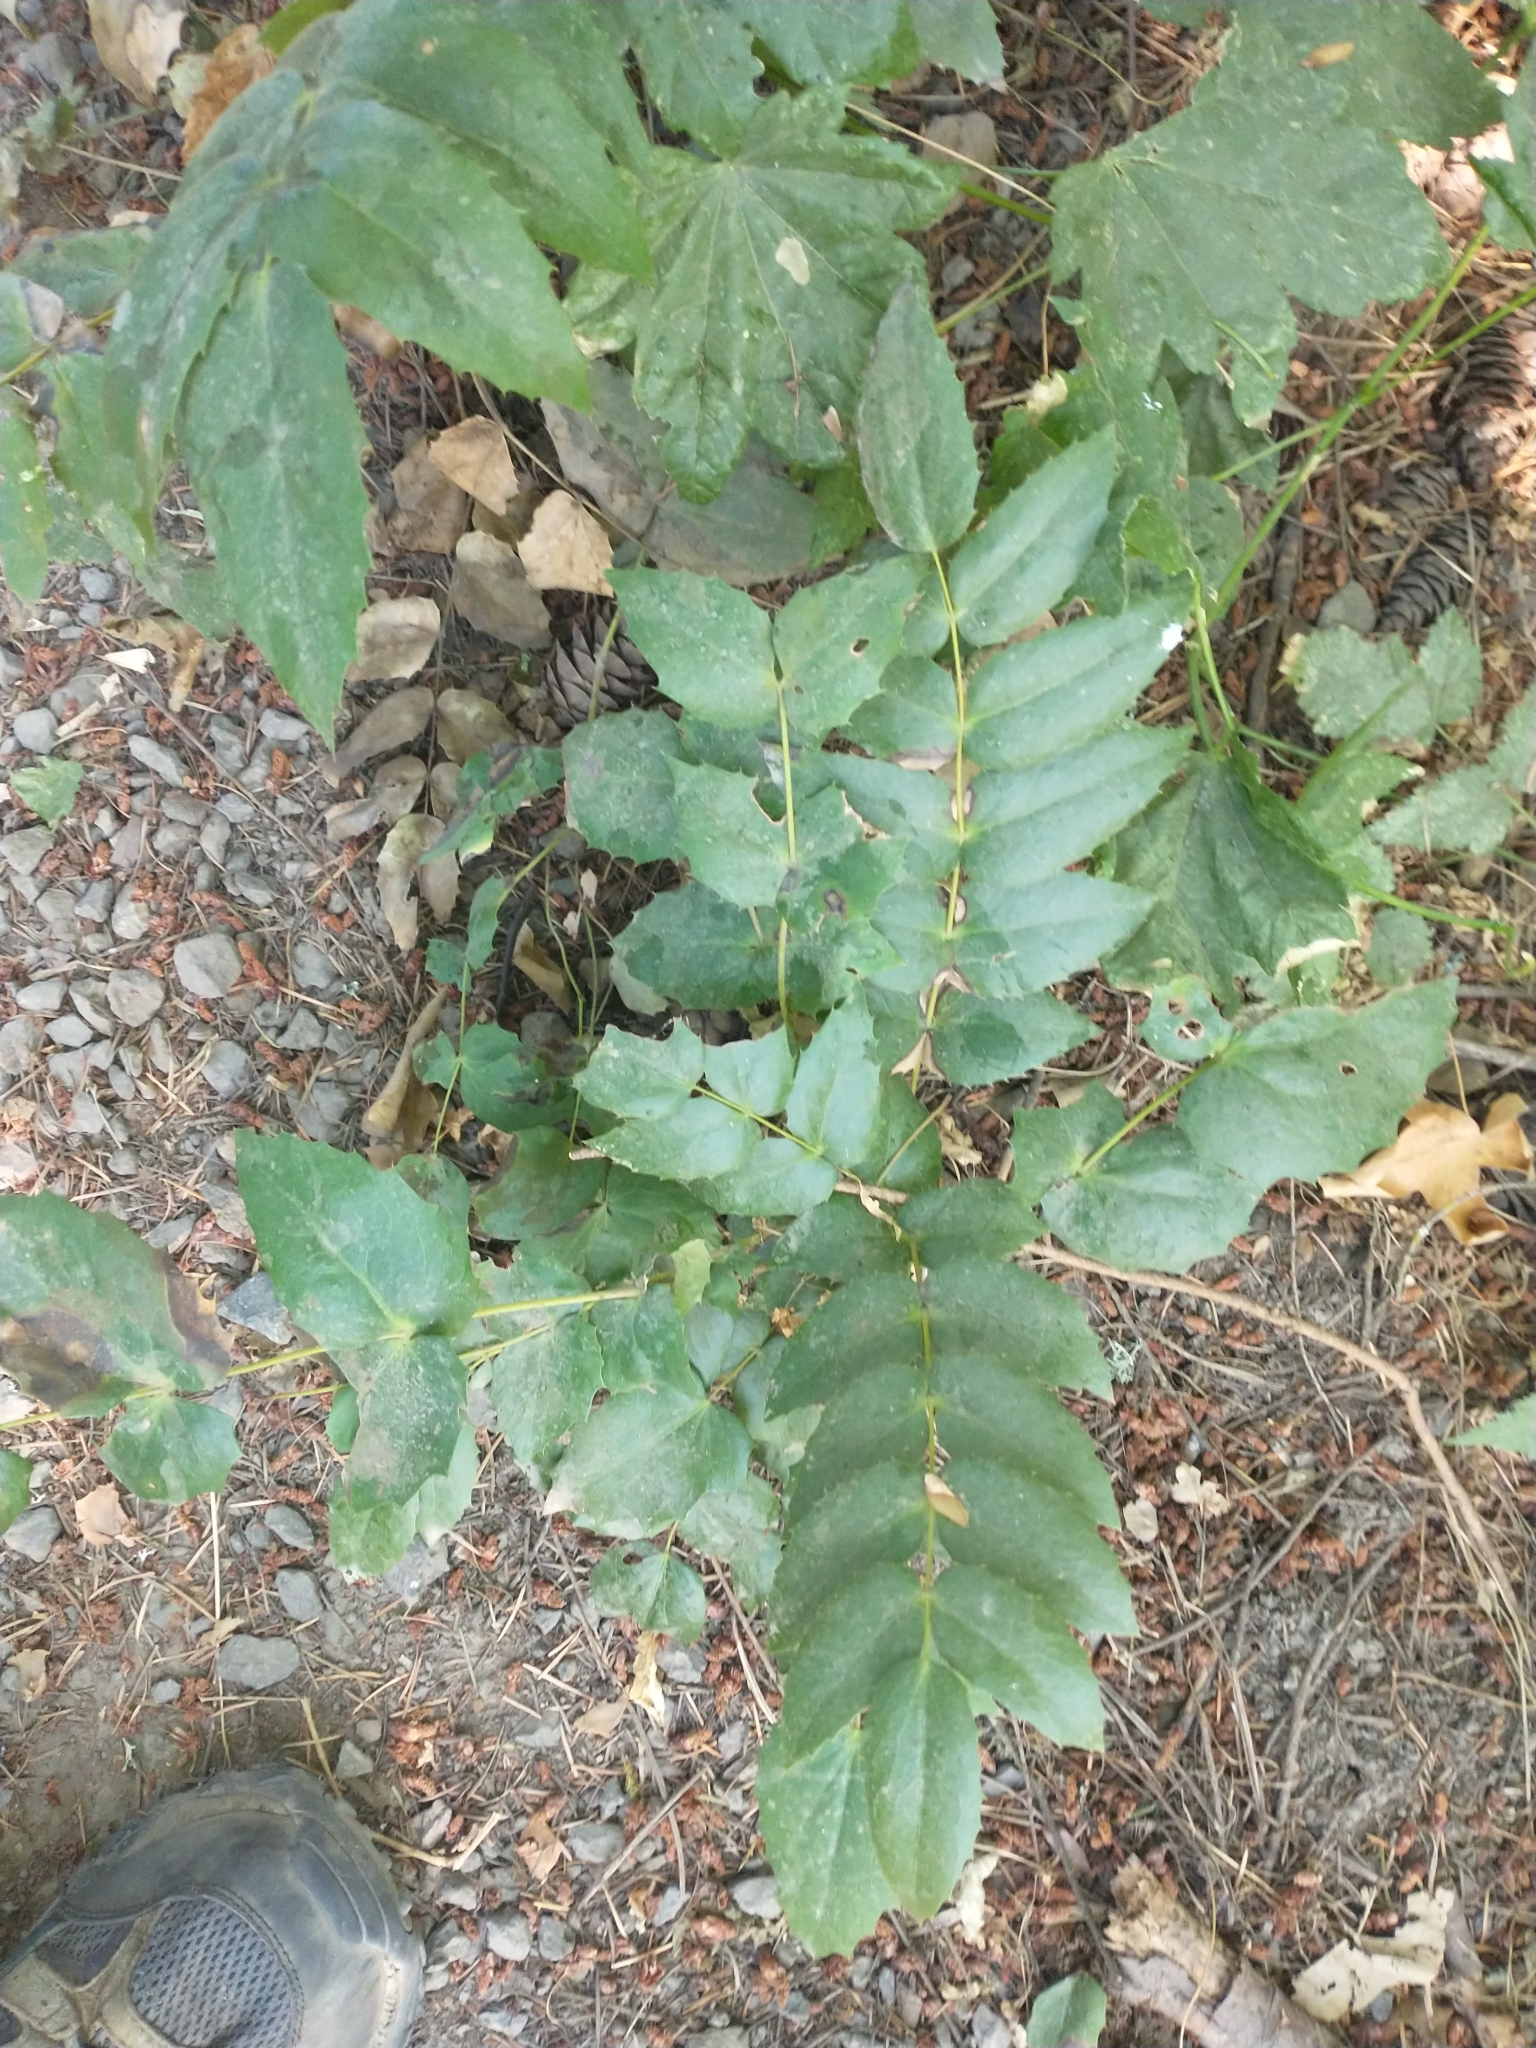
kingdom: Plantae
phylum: Tracheophyta
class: Magnoliopsida
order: Ranunculales
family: Berberidaceae
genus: Mahonia
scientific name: Mahonia nervosa
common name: Cascade oregon-grape
